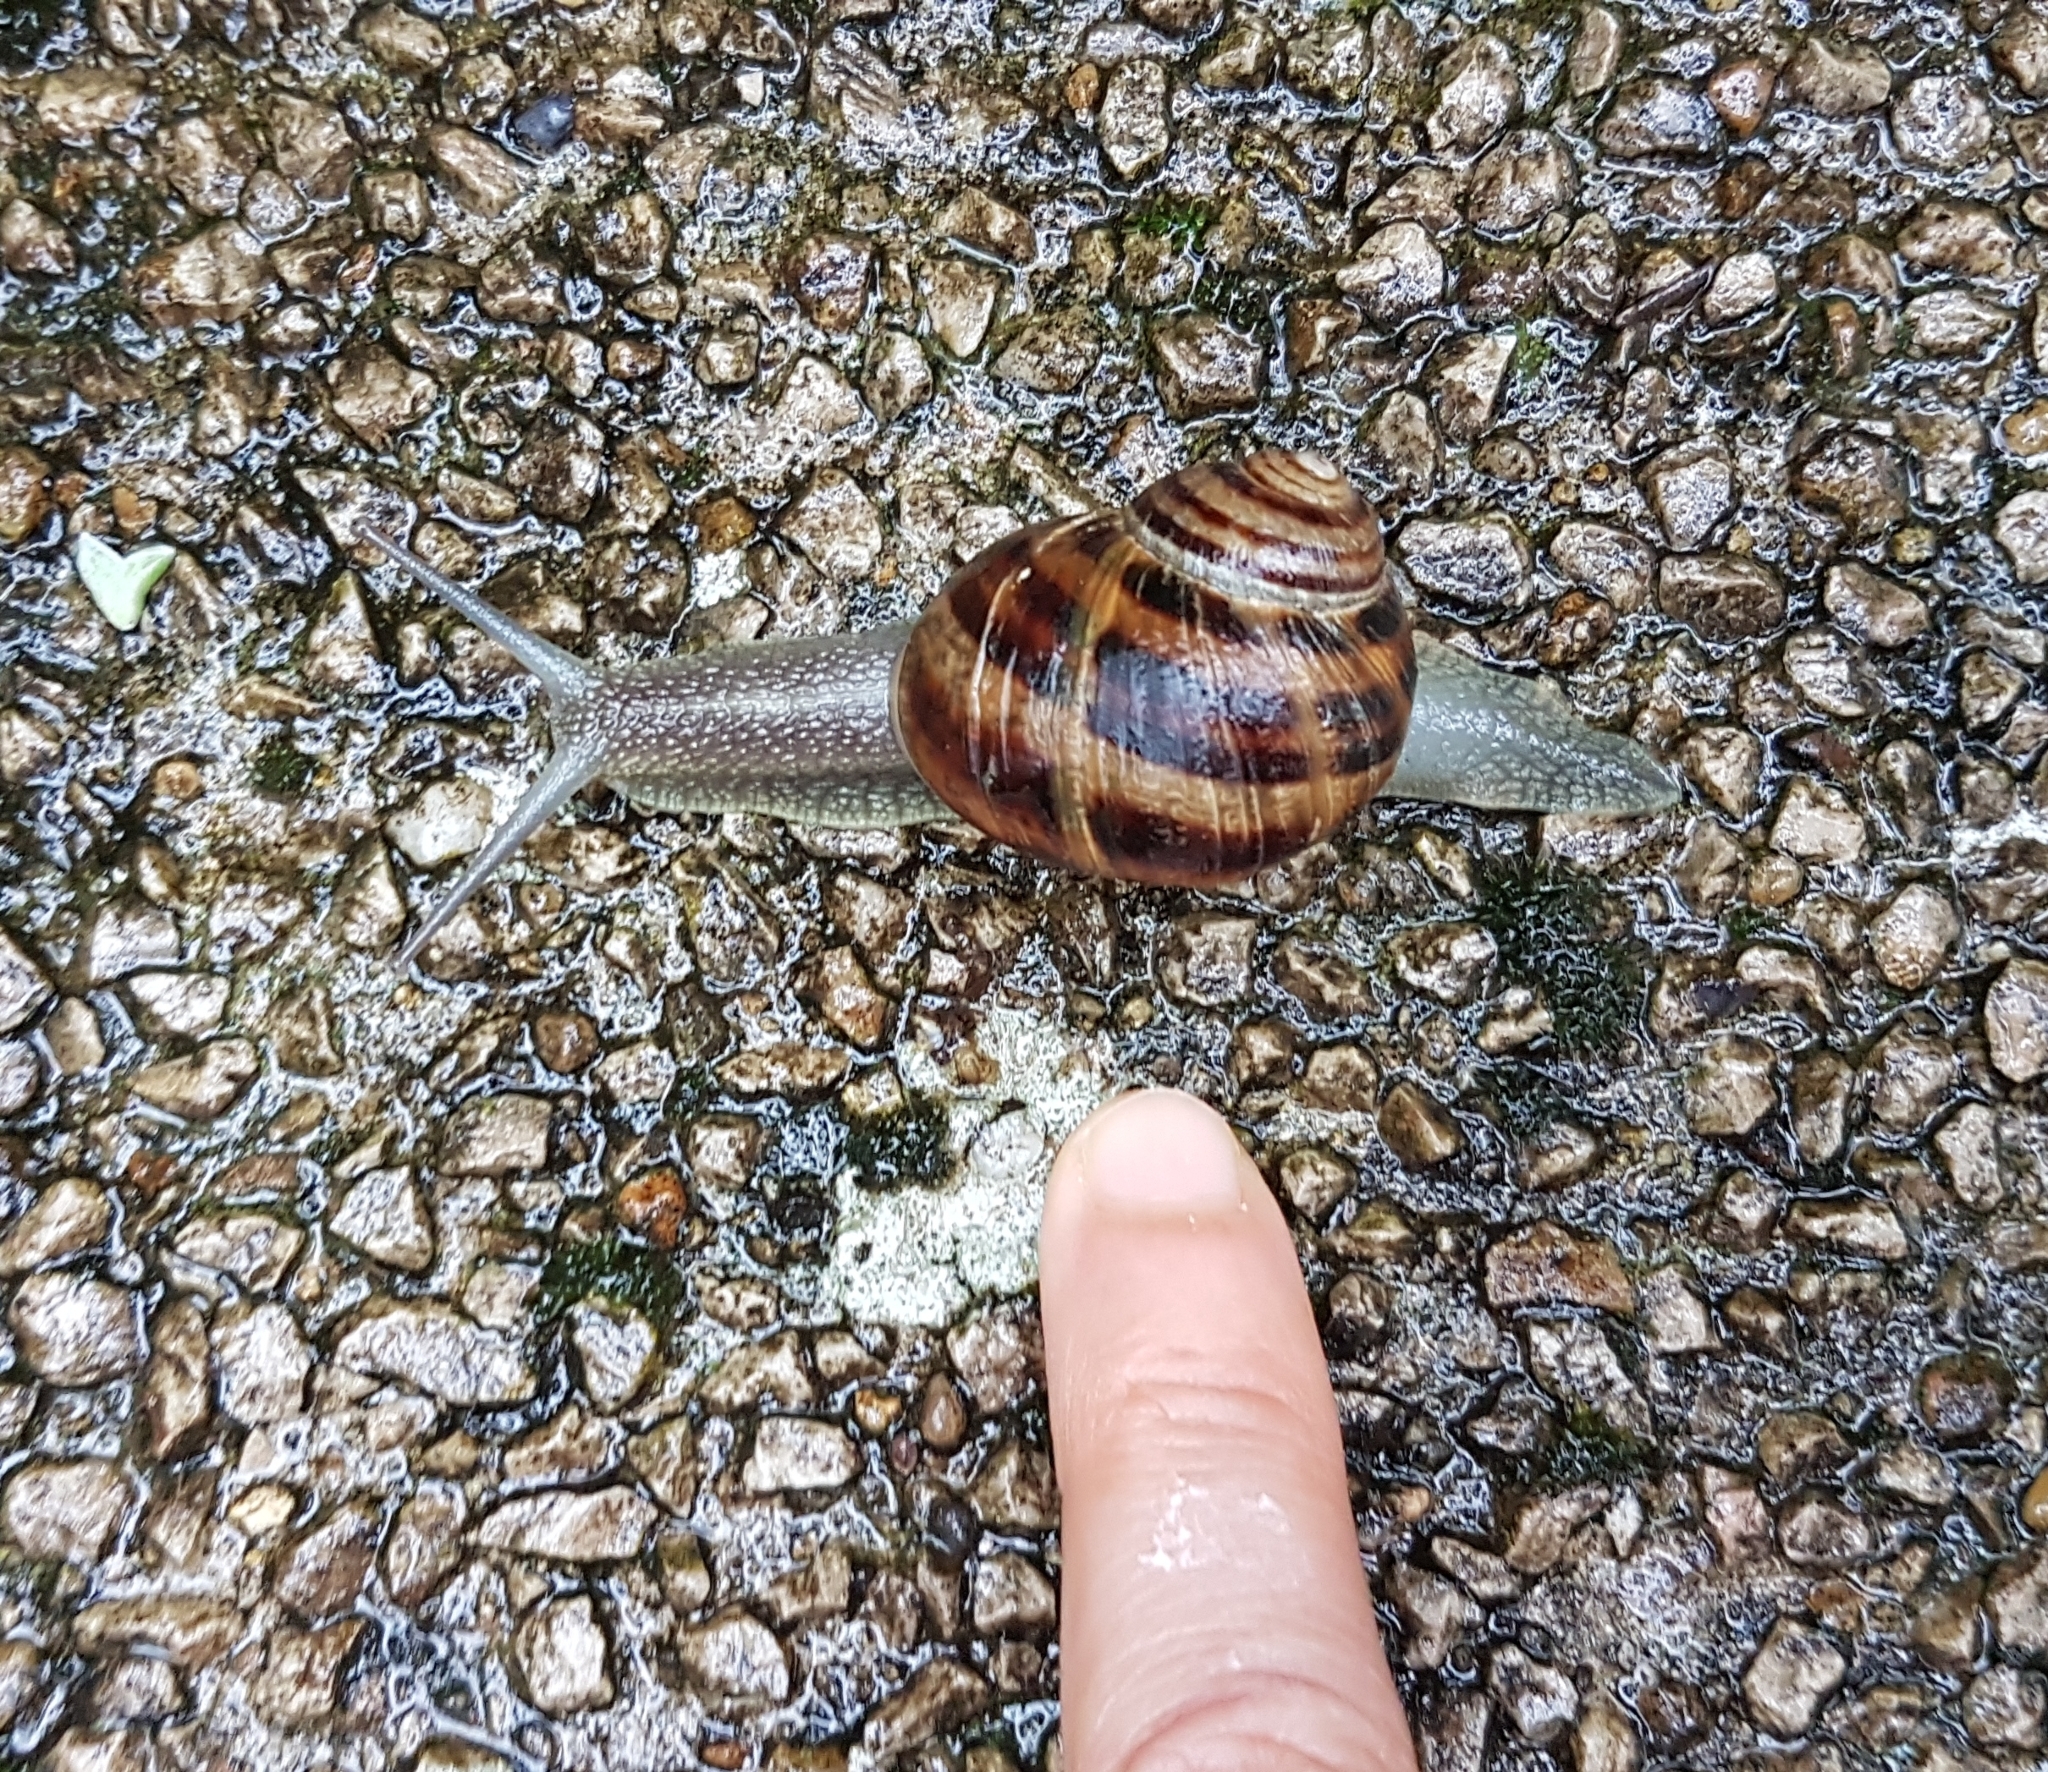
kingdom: Animalia
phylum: Mollusca
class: Gastropoda
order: Stylommatophora
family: Helicidae
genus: Cornu
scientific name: Cornu aspersum
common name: Brown garden snail
